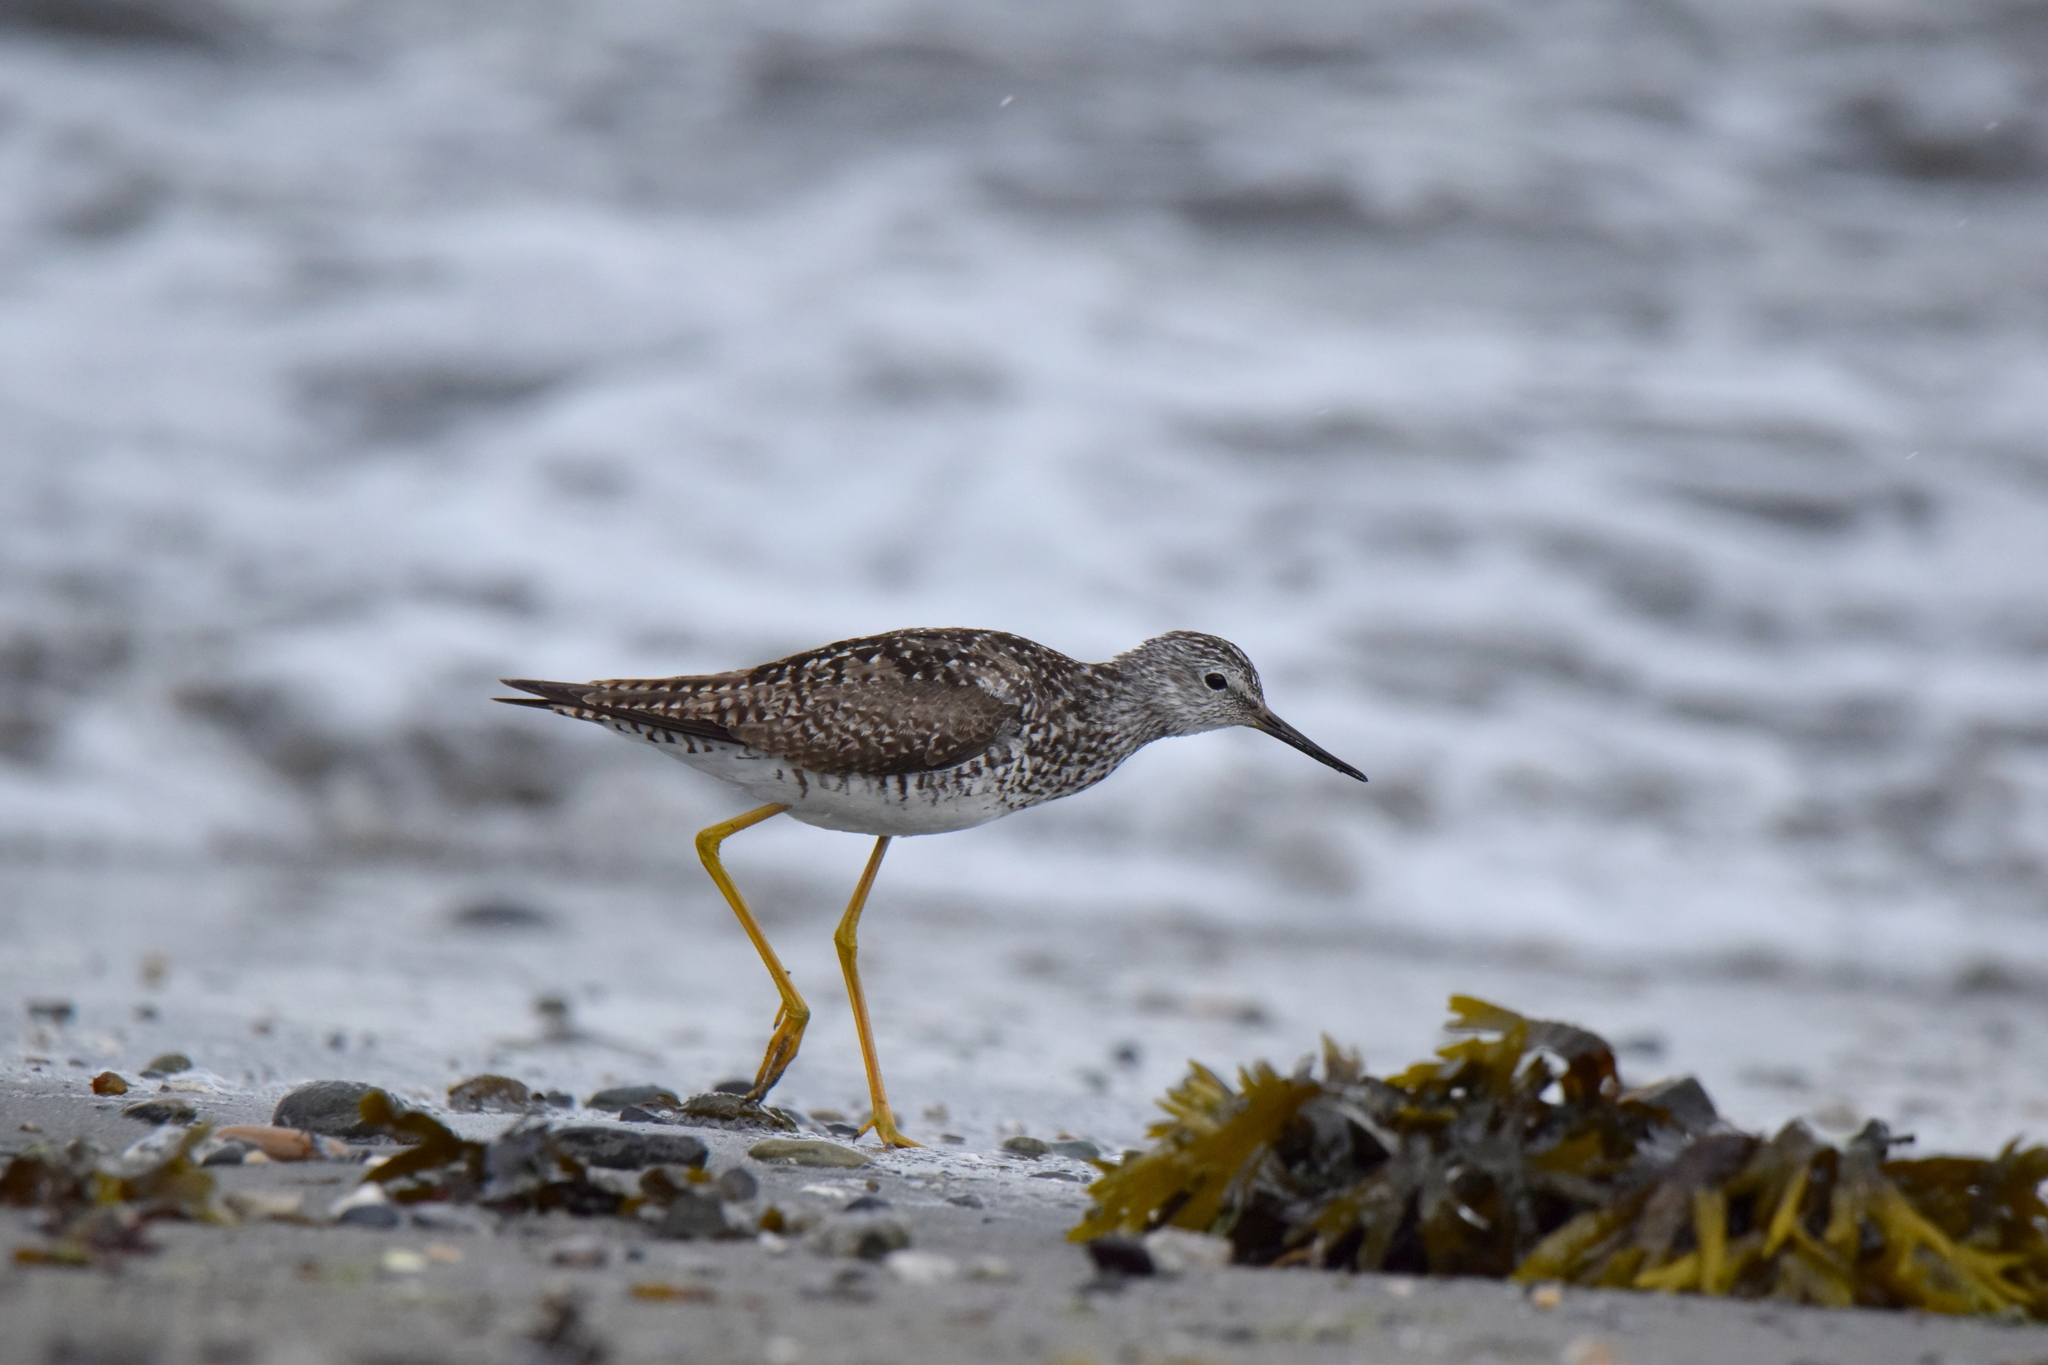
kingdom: Animalia
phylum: Chordata
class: Aves
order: Charadriiformes
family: Scolopacidae
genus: Tringa
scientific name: Tringa flavipes
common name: Lesser yellowlegs
